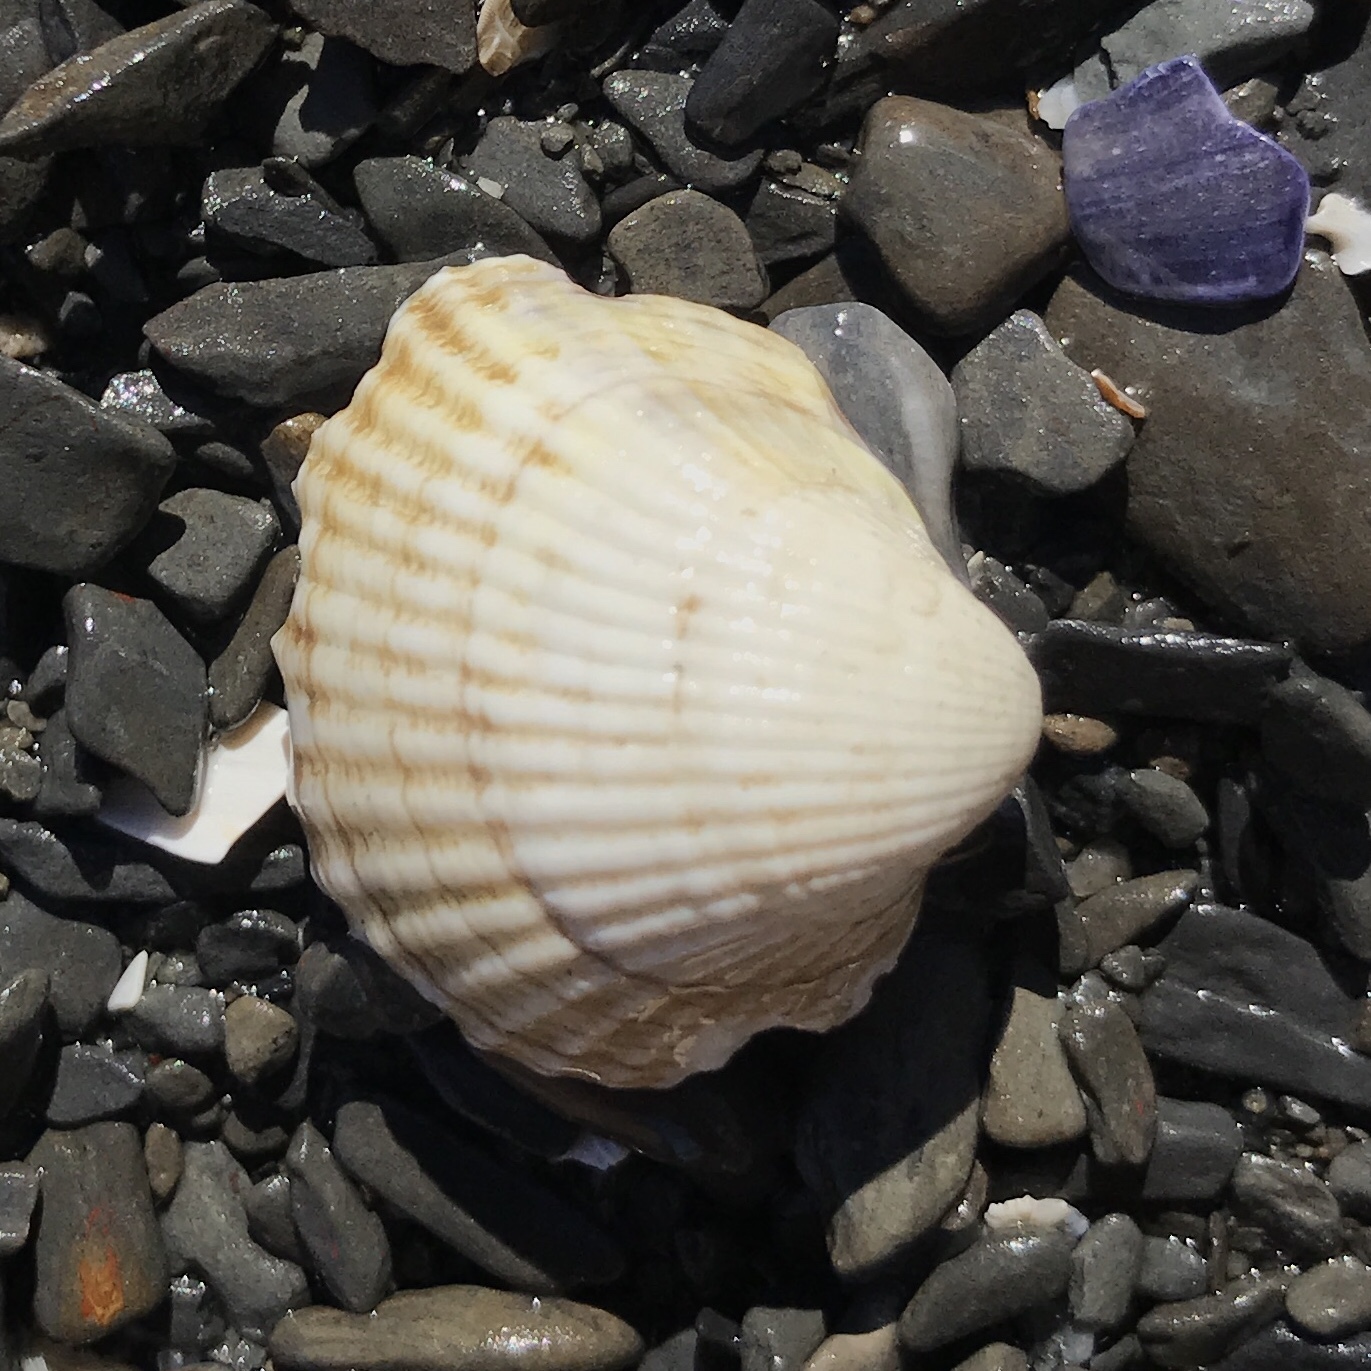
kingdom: Animalia
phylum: Mollusca
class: Bivalvia
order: Cardiida
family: Cardiidae
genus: Cerastoderma
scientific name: Cerastoderma edule
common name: Common cockle
